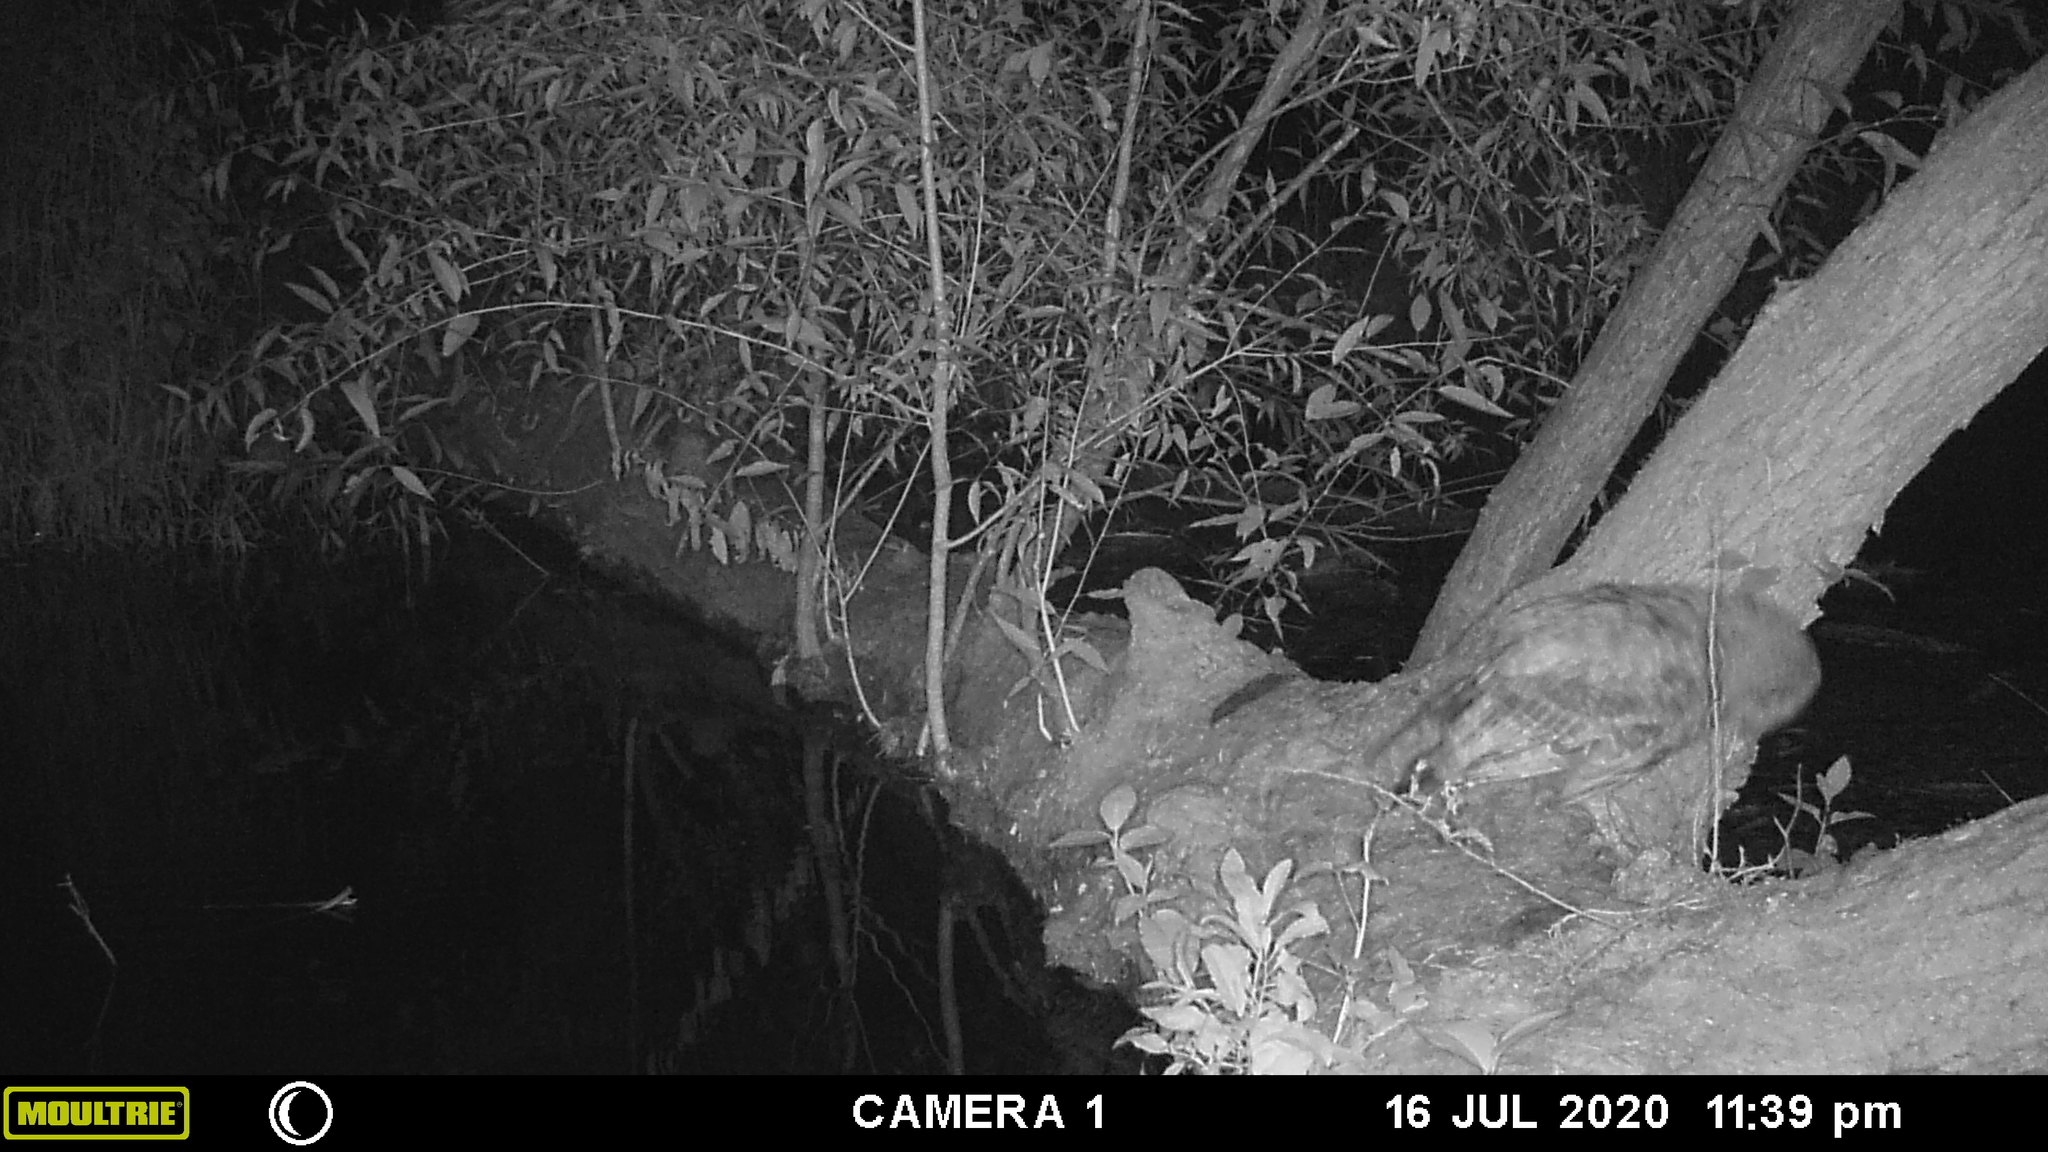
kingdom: Animalia
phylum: Chordata
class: Aves
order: Strigiformes
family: Strigidae
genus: Strix
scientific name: Strix varia
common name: Barred owl
